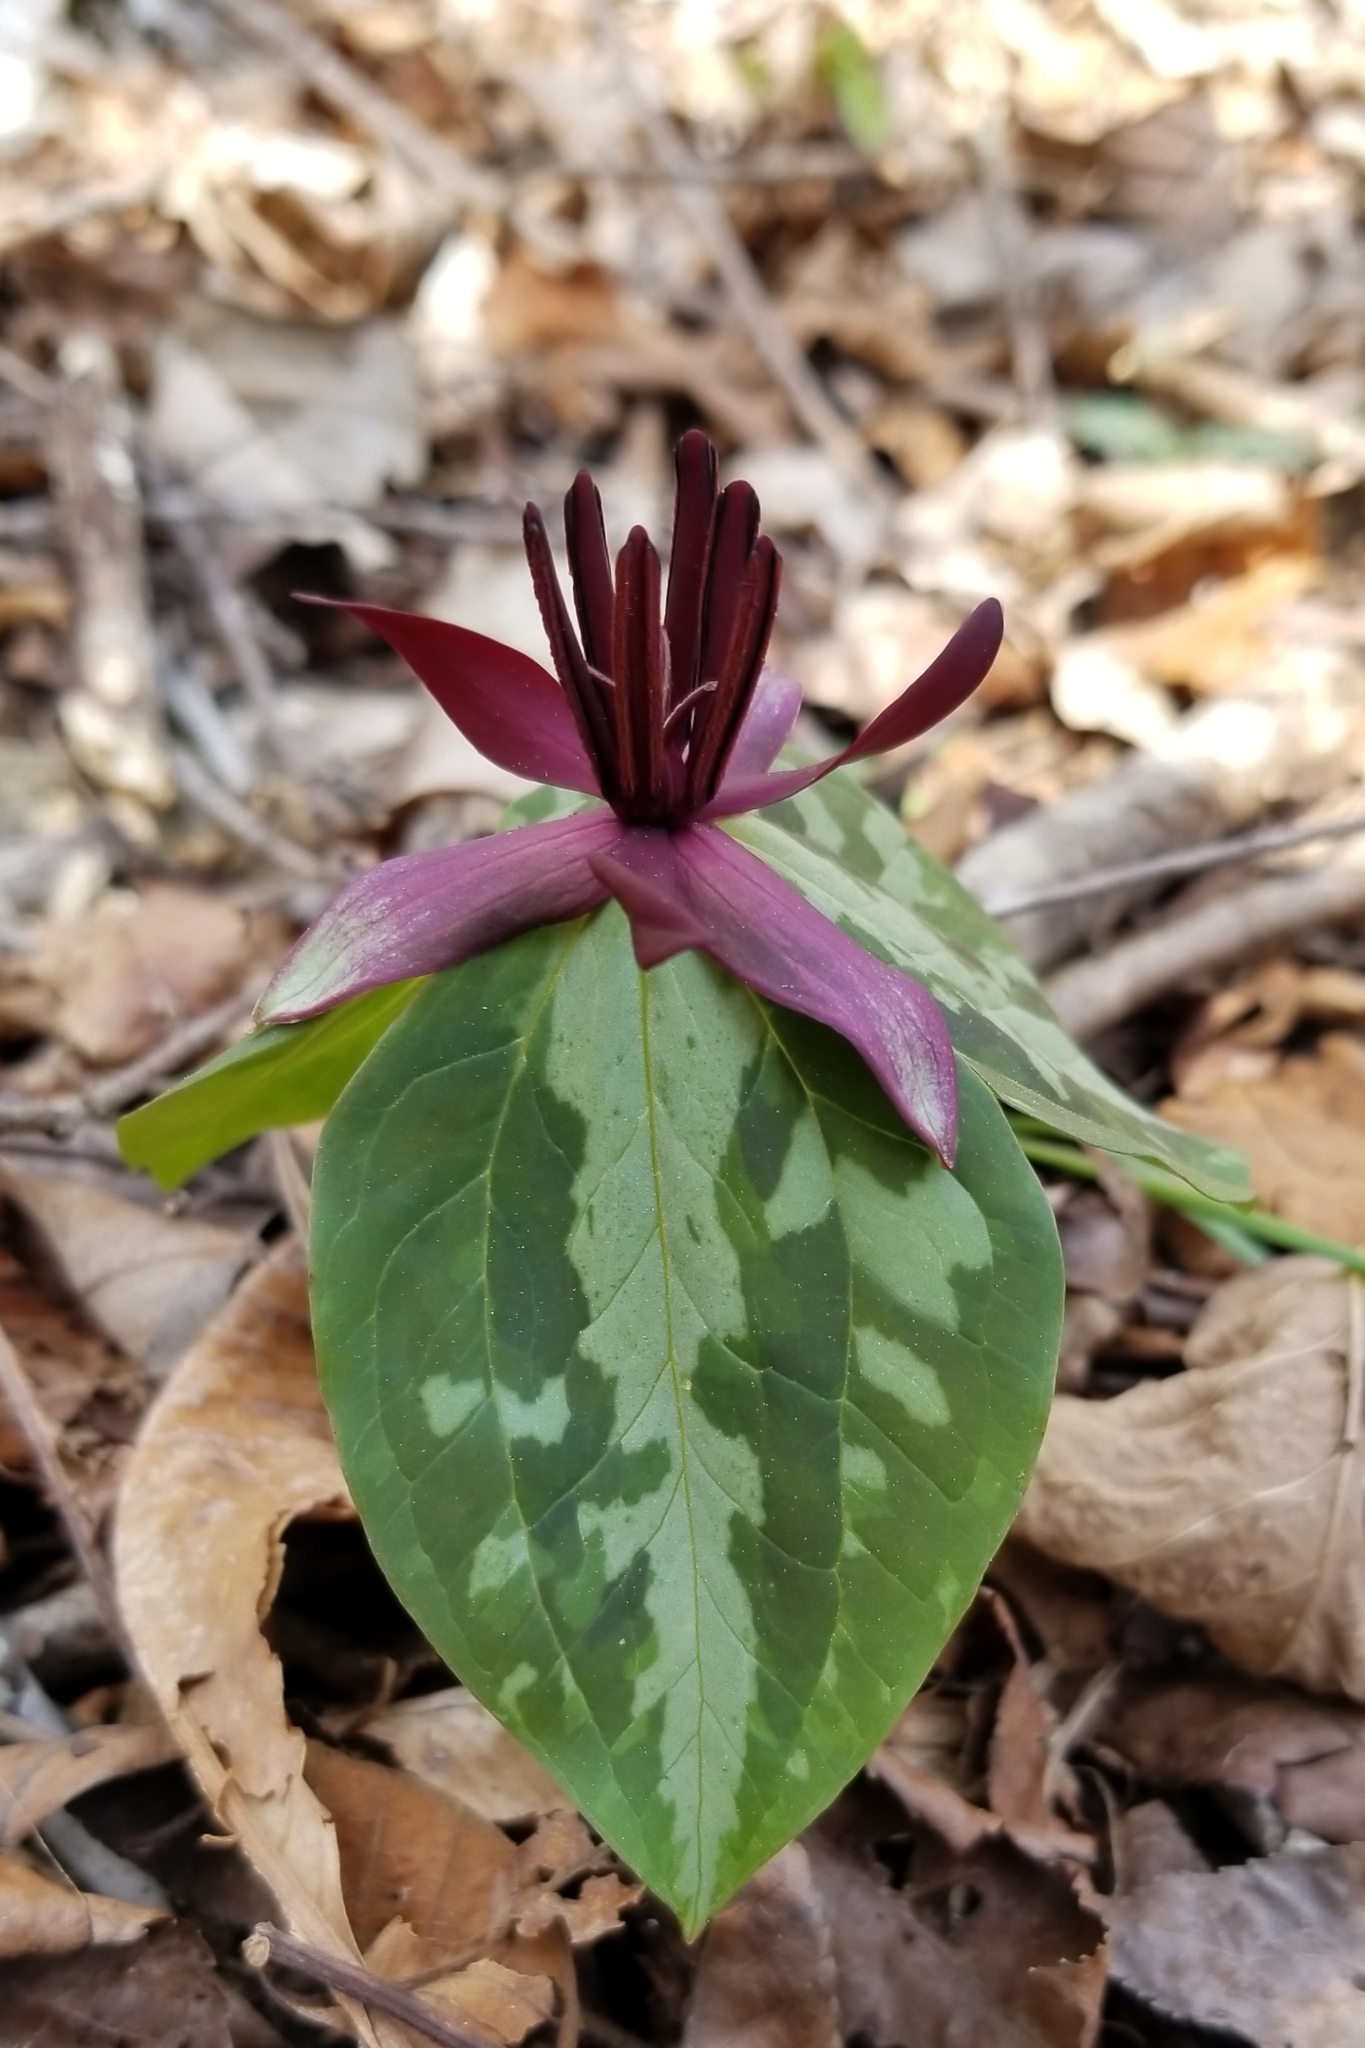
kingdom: Plantae
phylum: Tracheophyta
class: Liliopsida
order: Liliales
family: Melanthiaceae
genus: Trillium
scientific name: Trillium stamineum
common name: Blue ridge wakerobin
